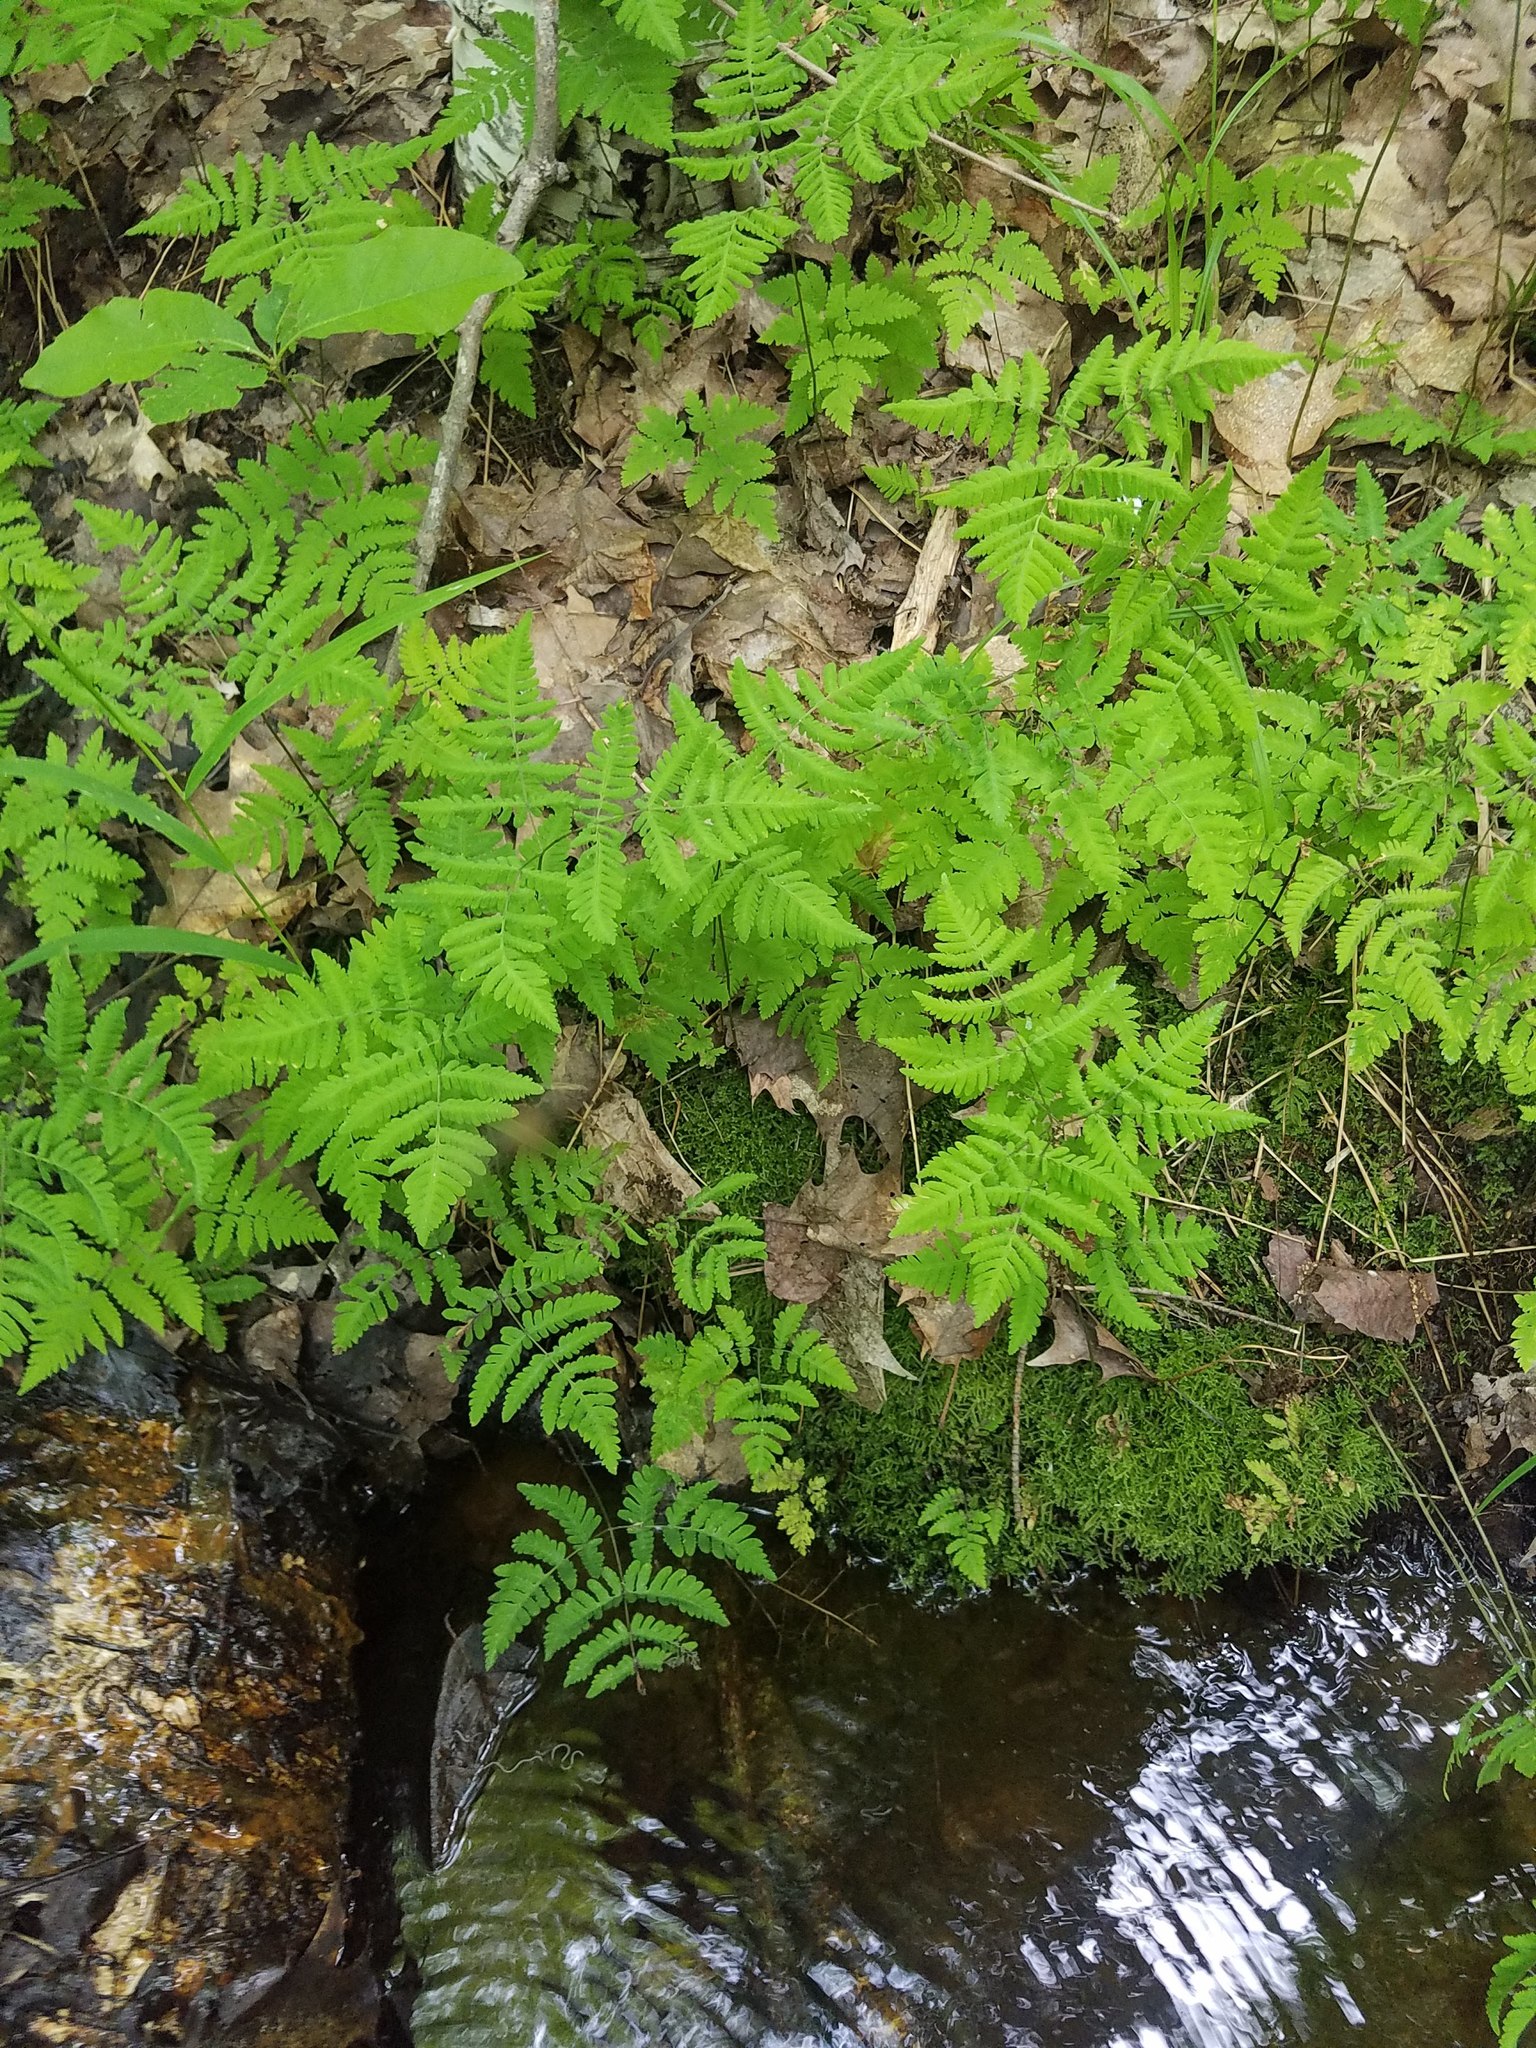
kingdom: Plantae
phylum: Tracheophyta
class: Polypodiopsida
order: Polypodiales
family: Cystopteridaceae
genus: Gymnocarpium
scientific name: Gymnocarpium dryopteris
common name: Oak fern
